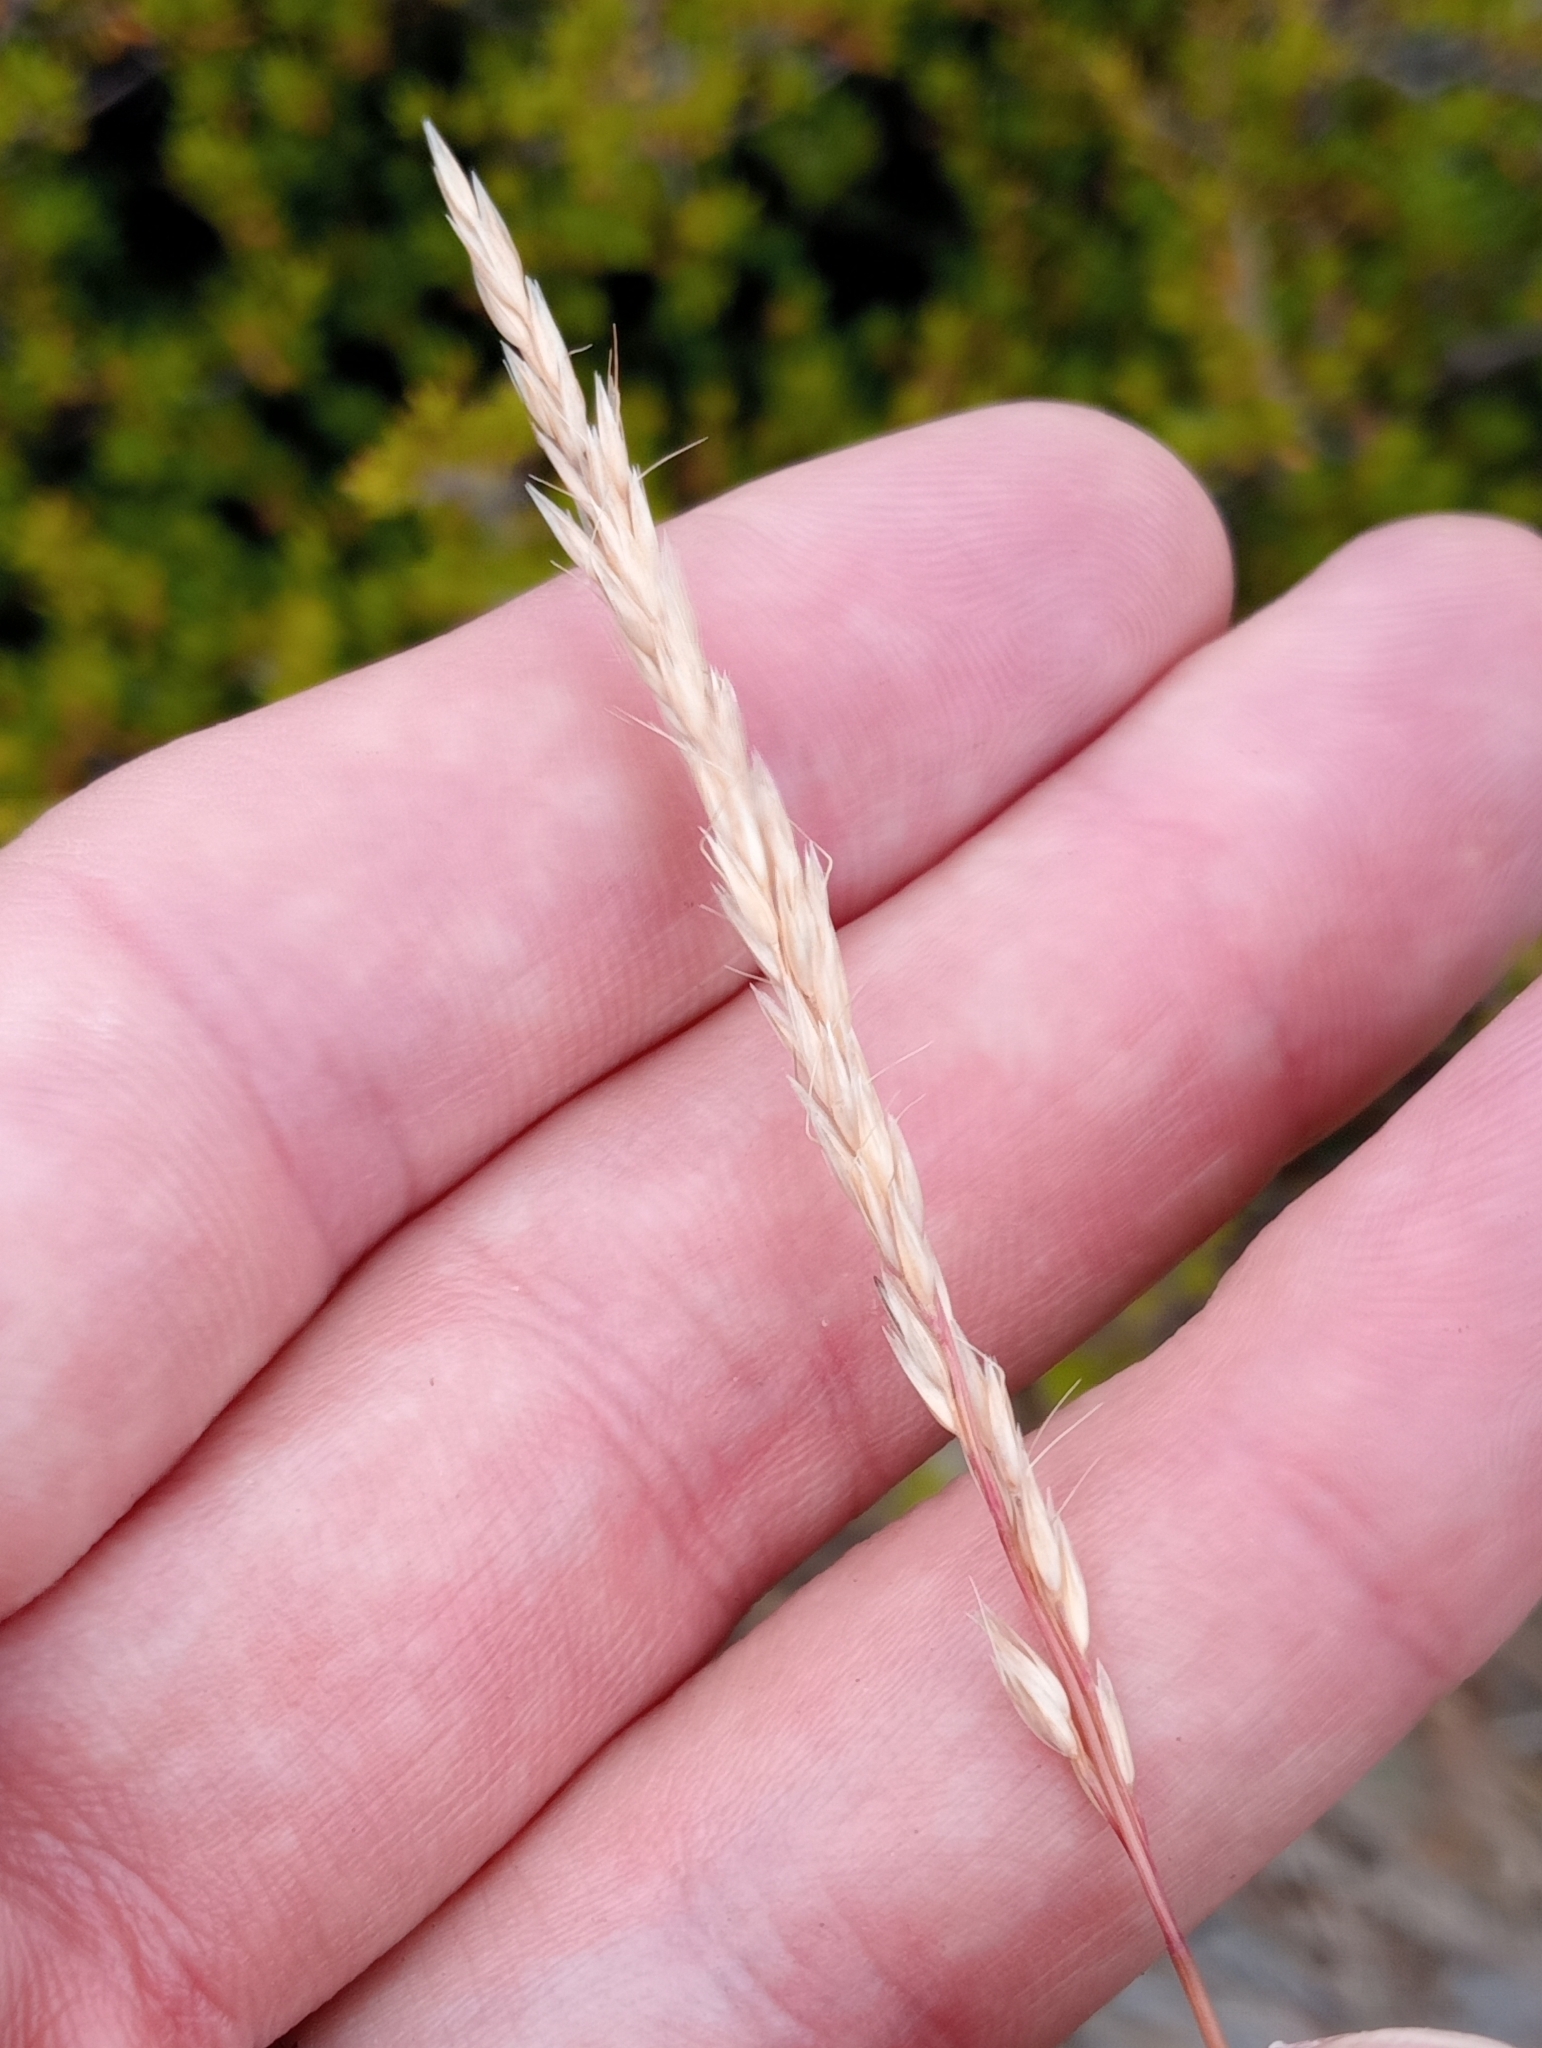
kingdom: Plantae
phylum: Tracheophyta
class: Liliopsida
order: Poales
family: Poaceae
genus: Calamagrostis
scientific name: Calamagrostis avenoides
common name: Mountain oat grass
